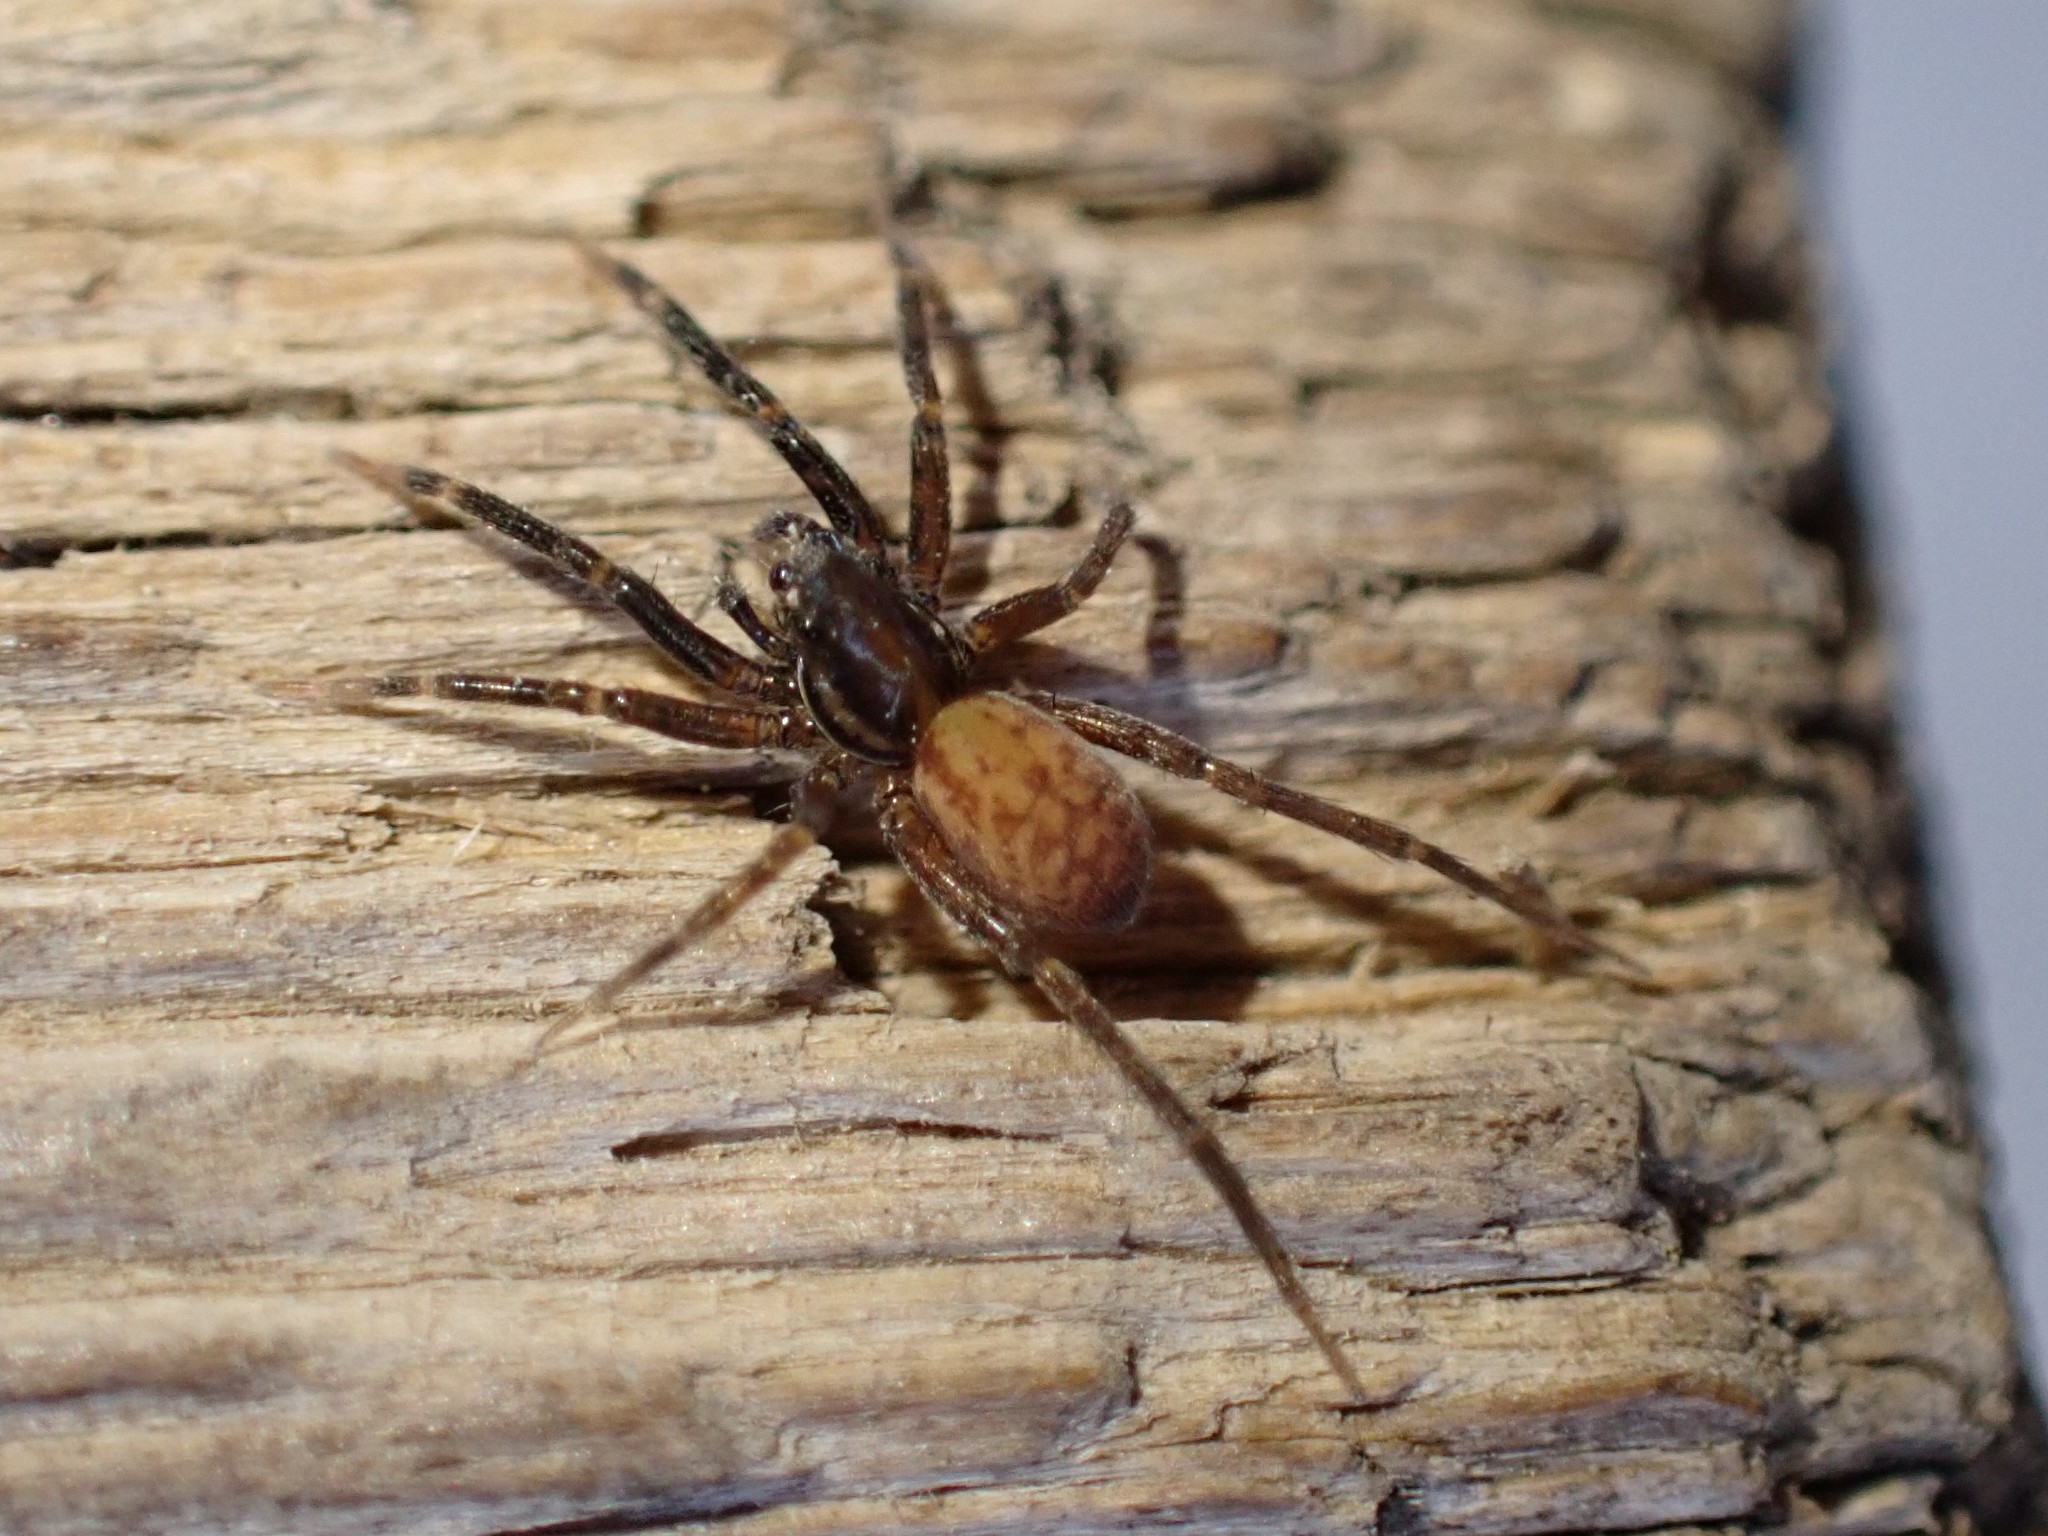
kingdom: Animalia
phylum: Arthropoda
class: Arachnida
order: Araneae
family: Lycosidae
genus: Trabeops
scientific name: Trabeops aurantiacus
